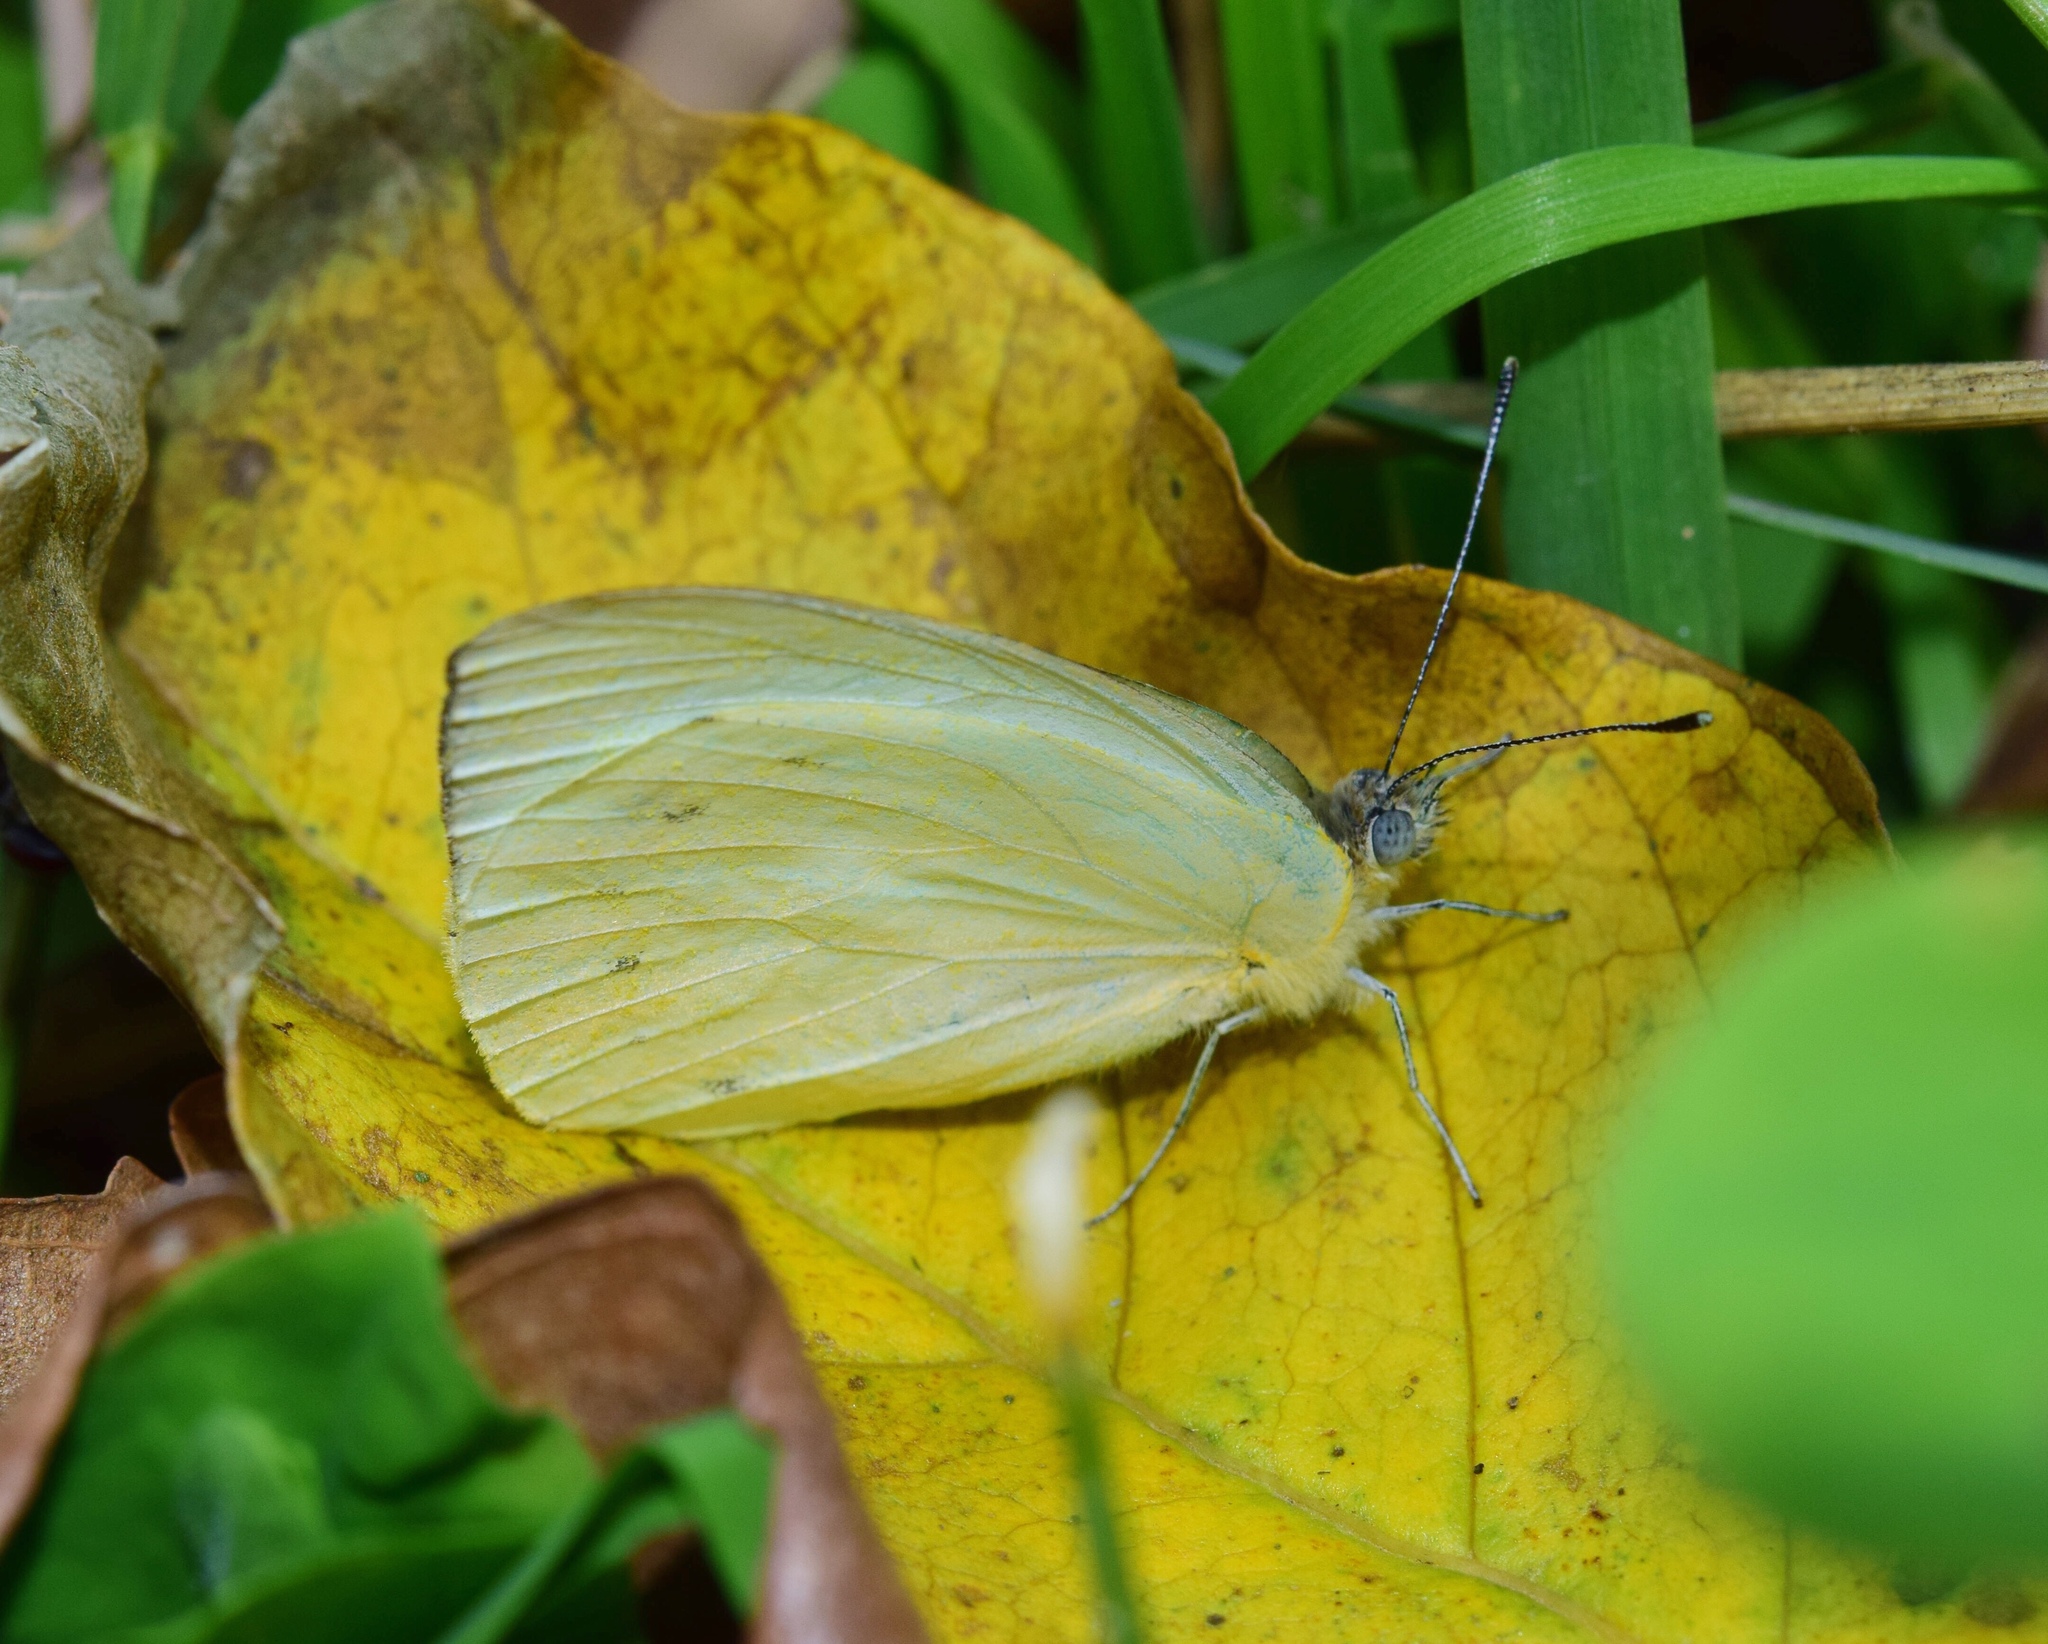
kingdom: Animalia
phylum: Arthropoda
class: Insecta
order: Lepidoptera
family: Pieridae
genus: Dixeia
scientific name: Dixeia pigea
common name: Ant-heap small white
